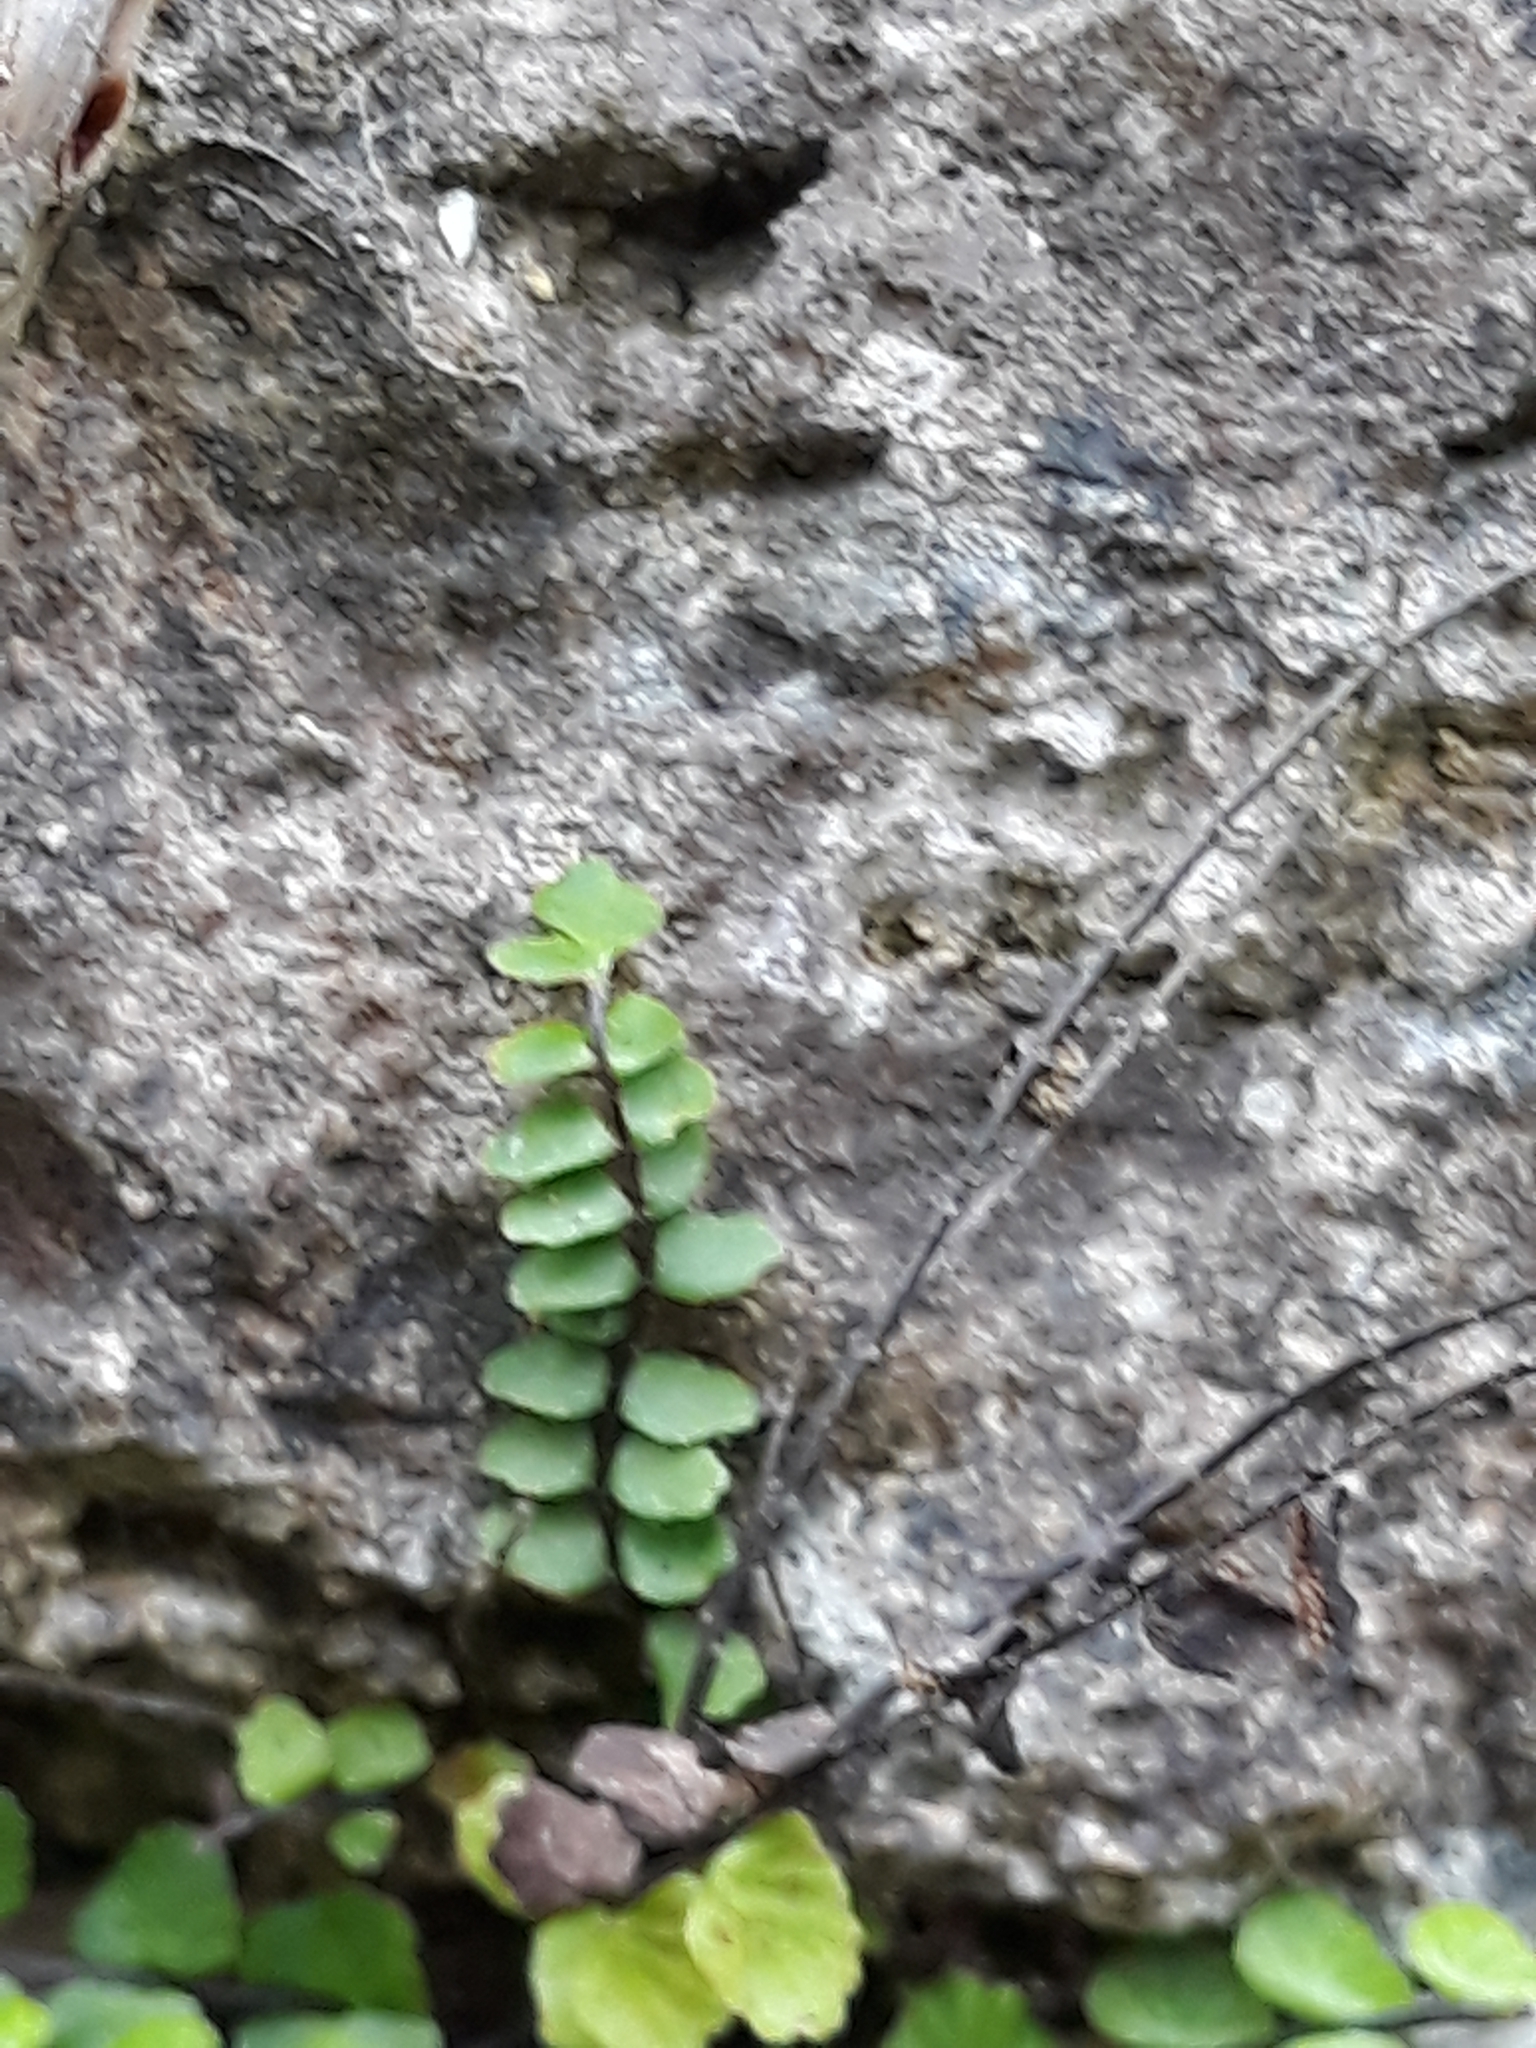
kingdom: Plantae
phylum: Tracheophyta
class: Polypodiopsida
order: Polypodiales
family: Aspleniaceae
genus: Asplenium
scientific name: Asplenium trichomanes
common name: Maidenhair spleenwort
